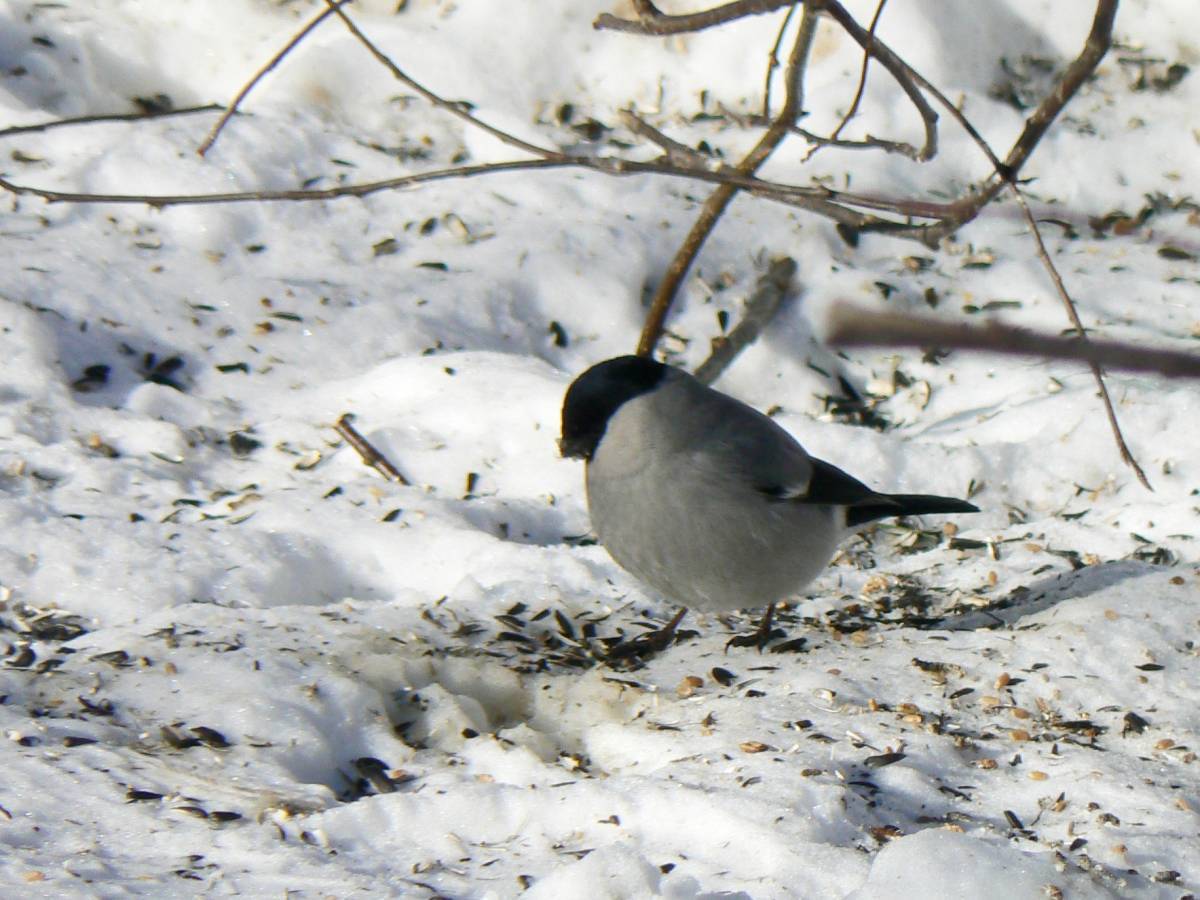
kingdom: Animalia
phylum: Chordata
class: Aves
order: Passeriformes
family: Fringillidae
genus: Pyrrhula
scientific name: Pyrrhula pyrrhula
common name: Eurasian bullfinch
